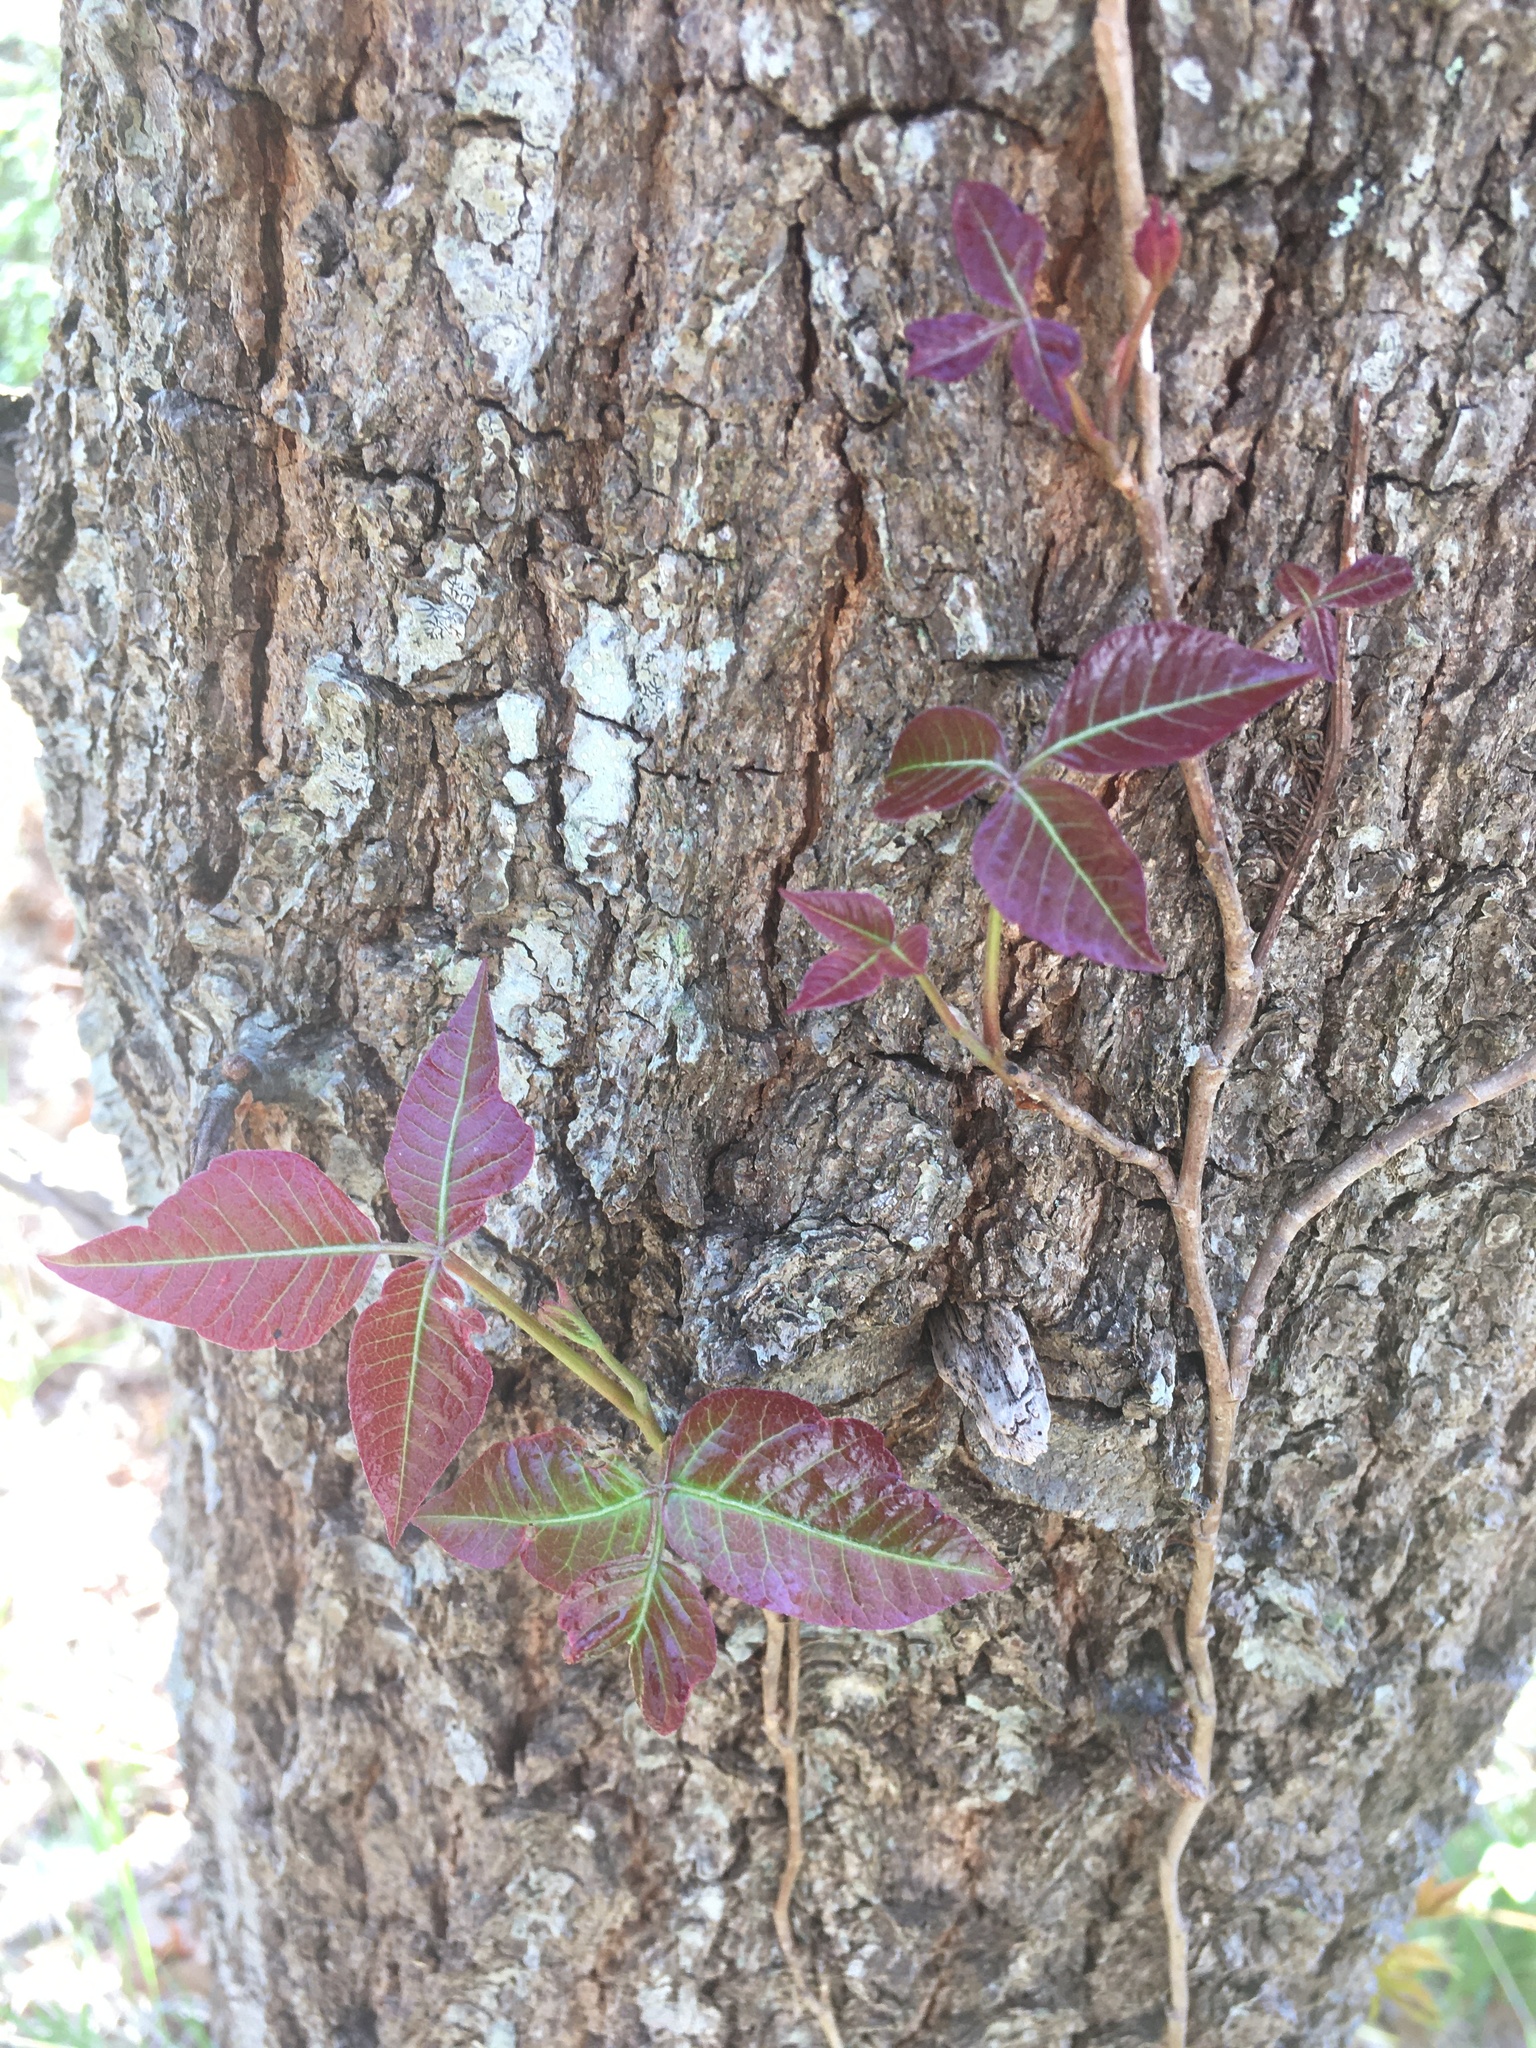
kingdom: Plantae
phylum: Tracheophyta
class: Magnoliopsida
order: Sapindales
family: Anacardiaceae
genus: Toxicodendron
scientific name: Toxicodendron radicans
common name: Poison ivy
